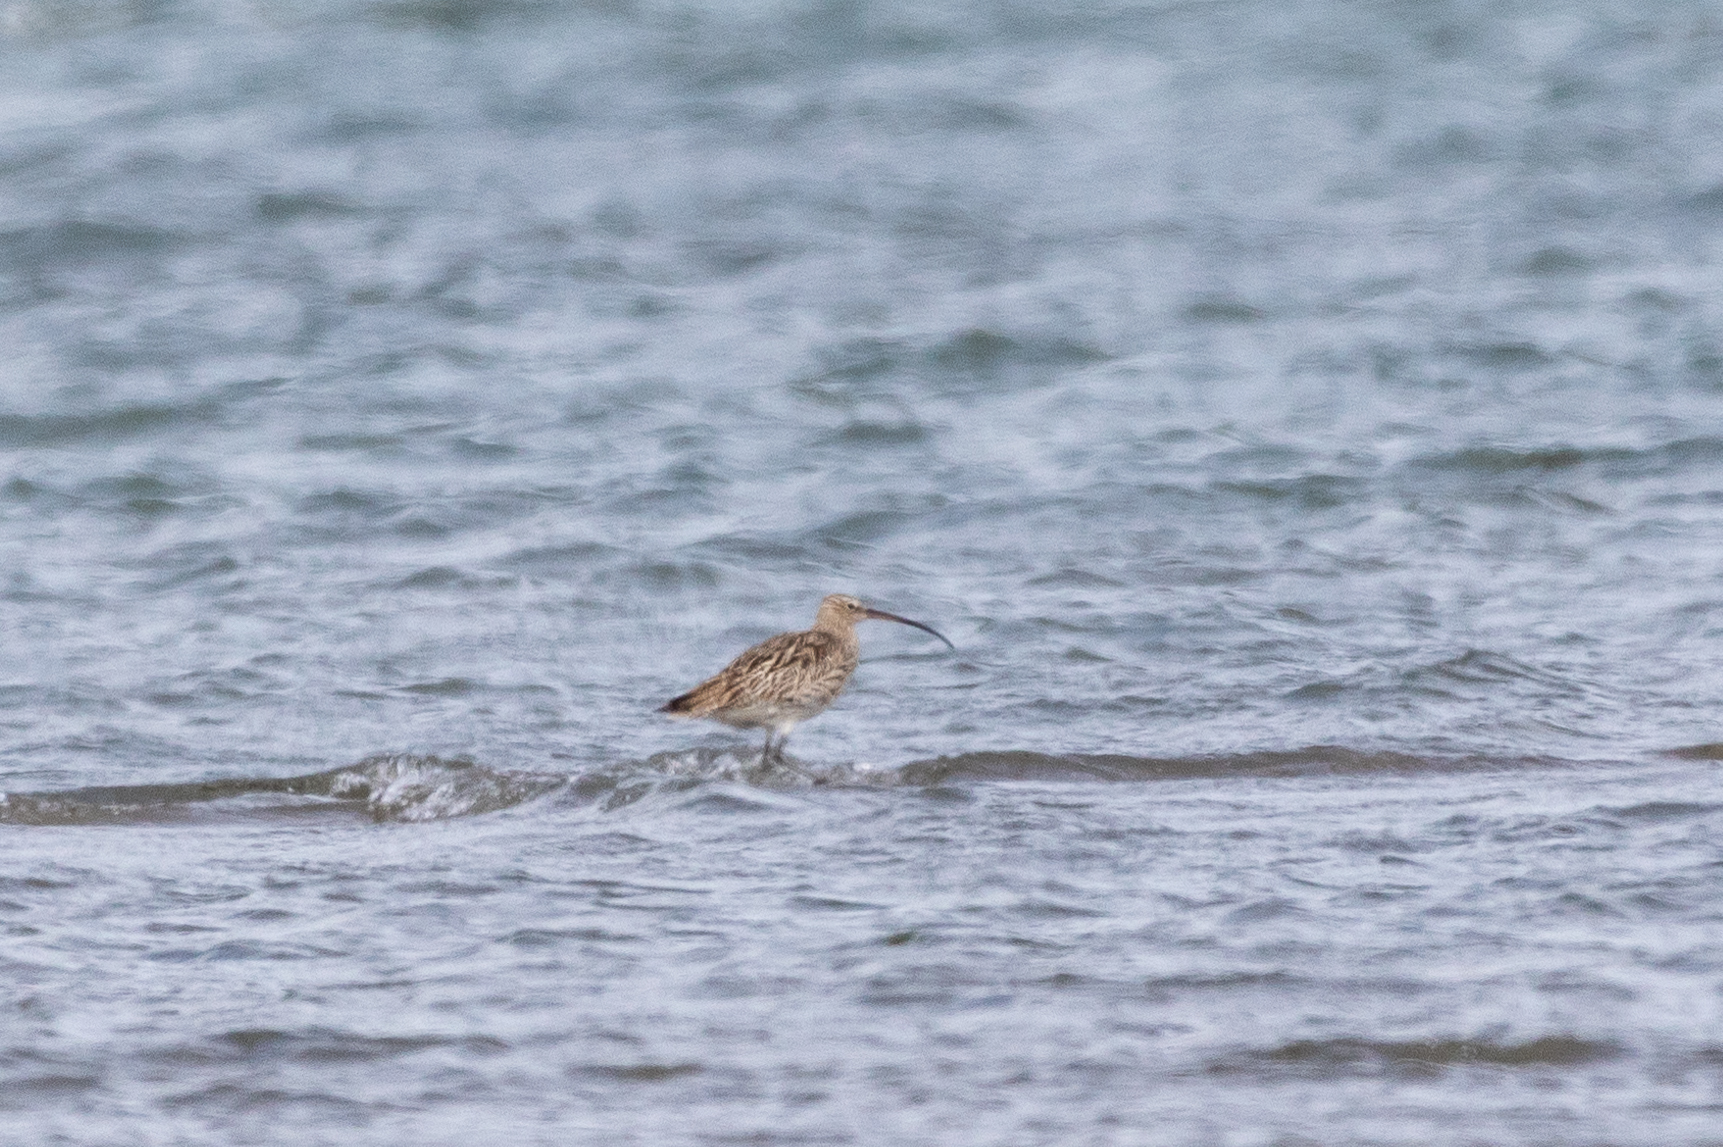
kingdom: Animalia
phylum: Chordata
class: Aves
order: Charadriiformes
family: Scolopacidae
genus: Numenius
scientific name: Numenius arquata
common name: Eurasian curlew
